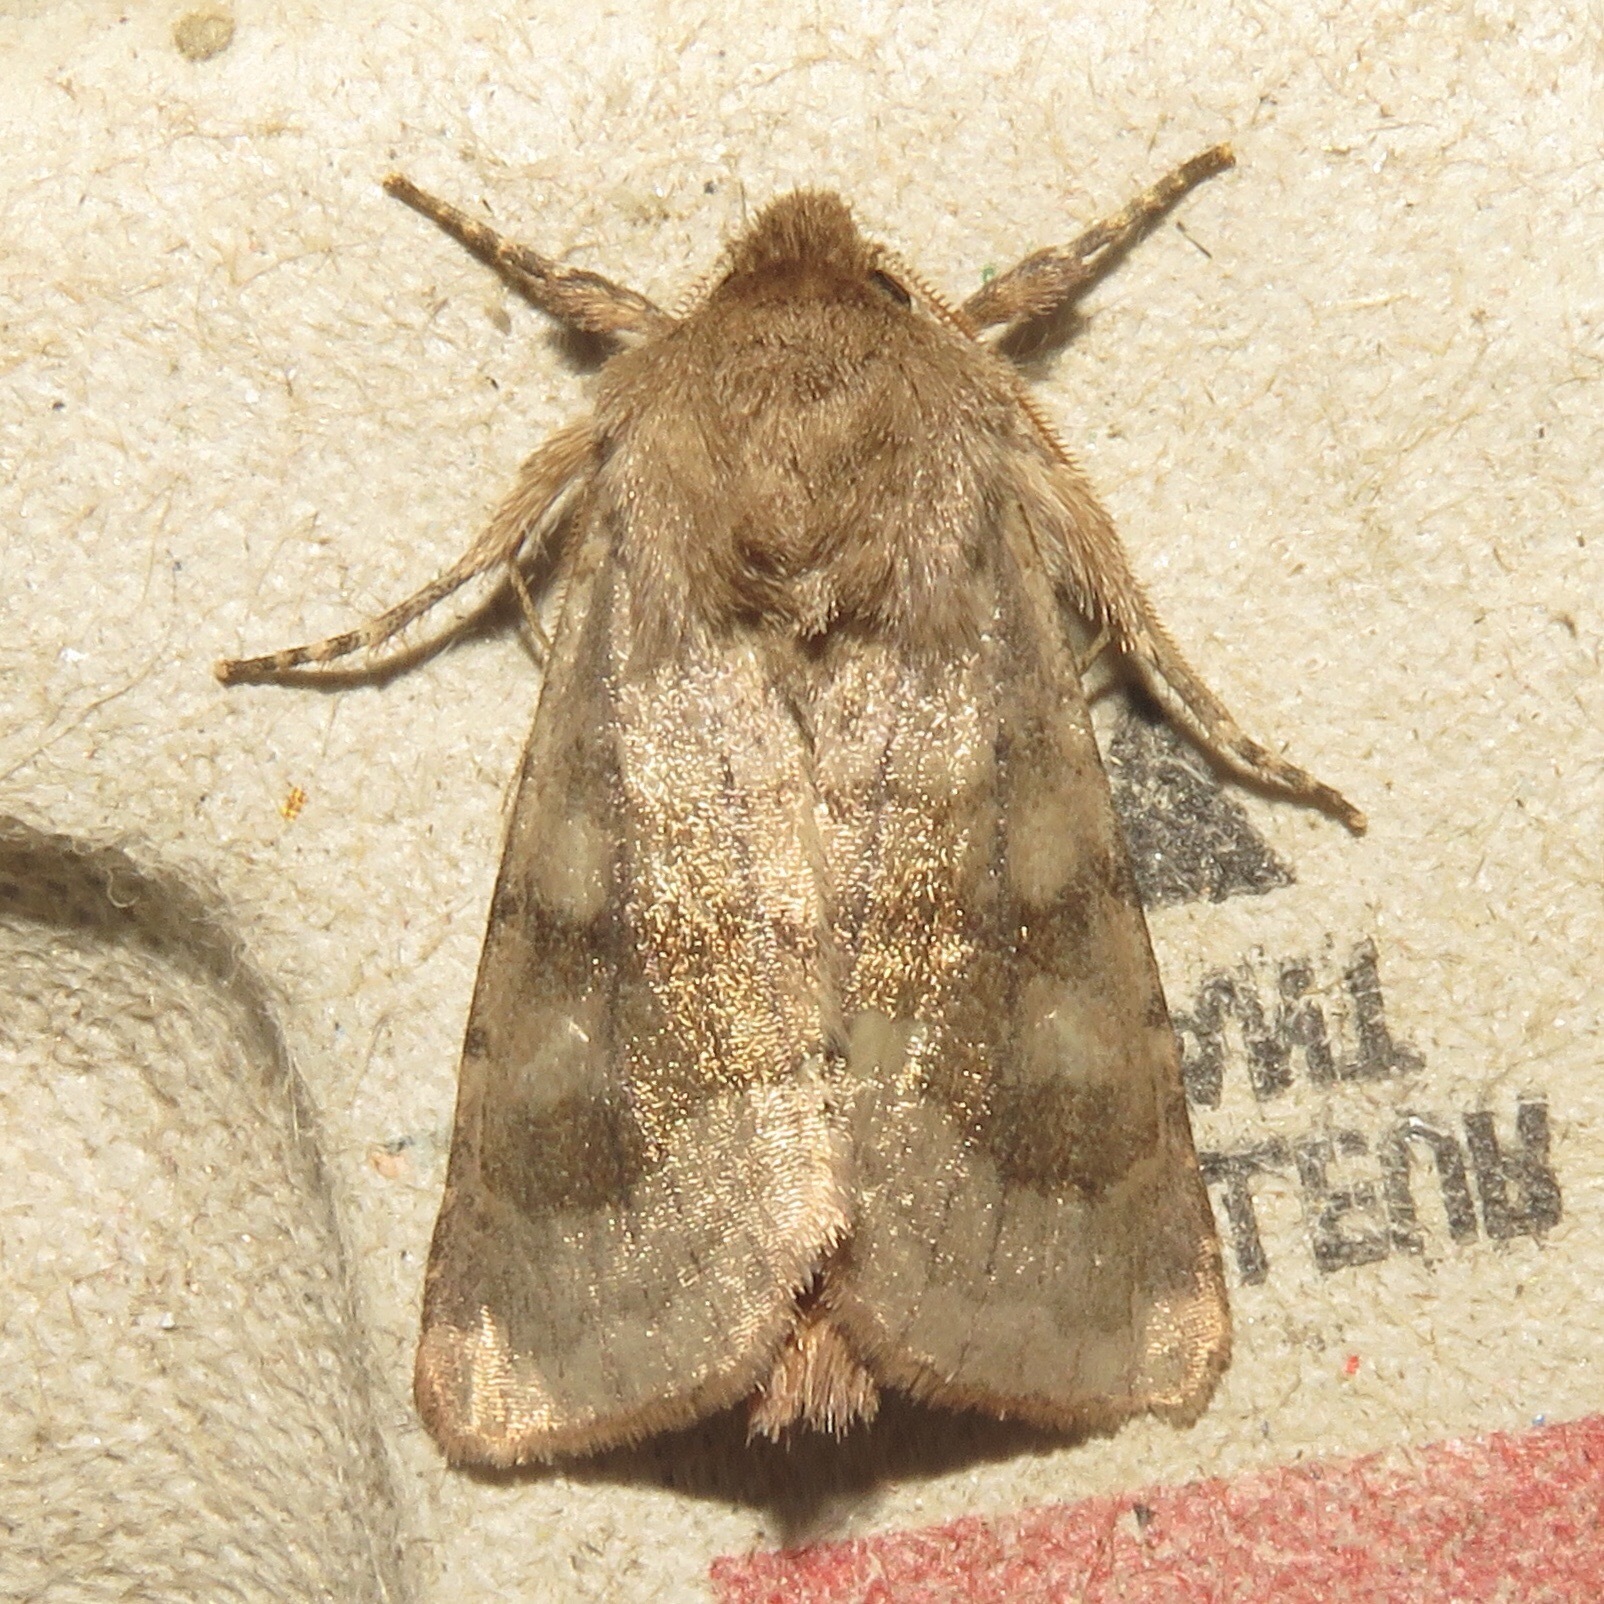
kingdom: Animalia
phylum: Arthropoda
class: Insecta
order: Lepidoptera
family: Noctuidae
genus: Nephelodes
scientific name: Nephelodes minians
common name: Bronzed cutworm
